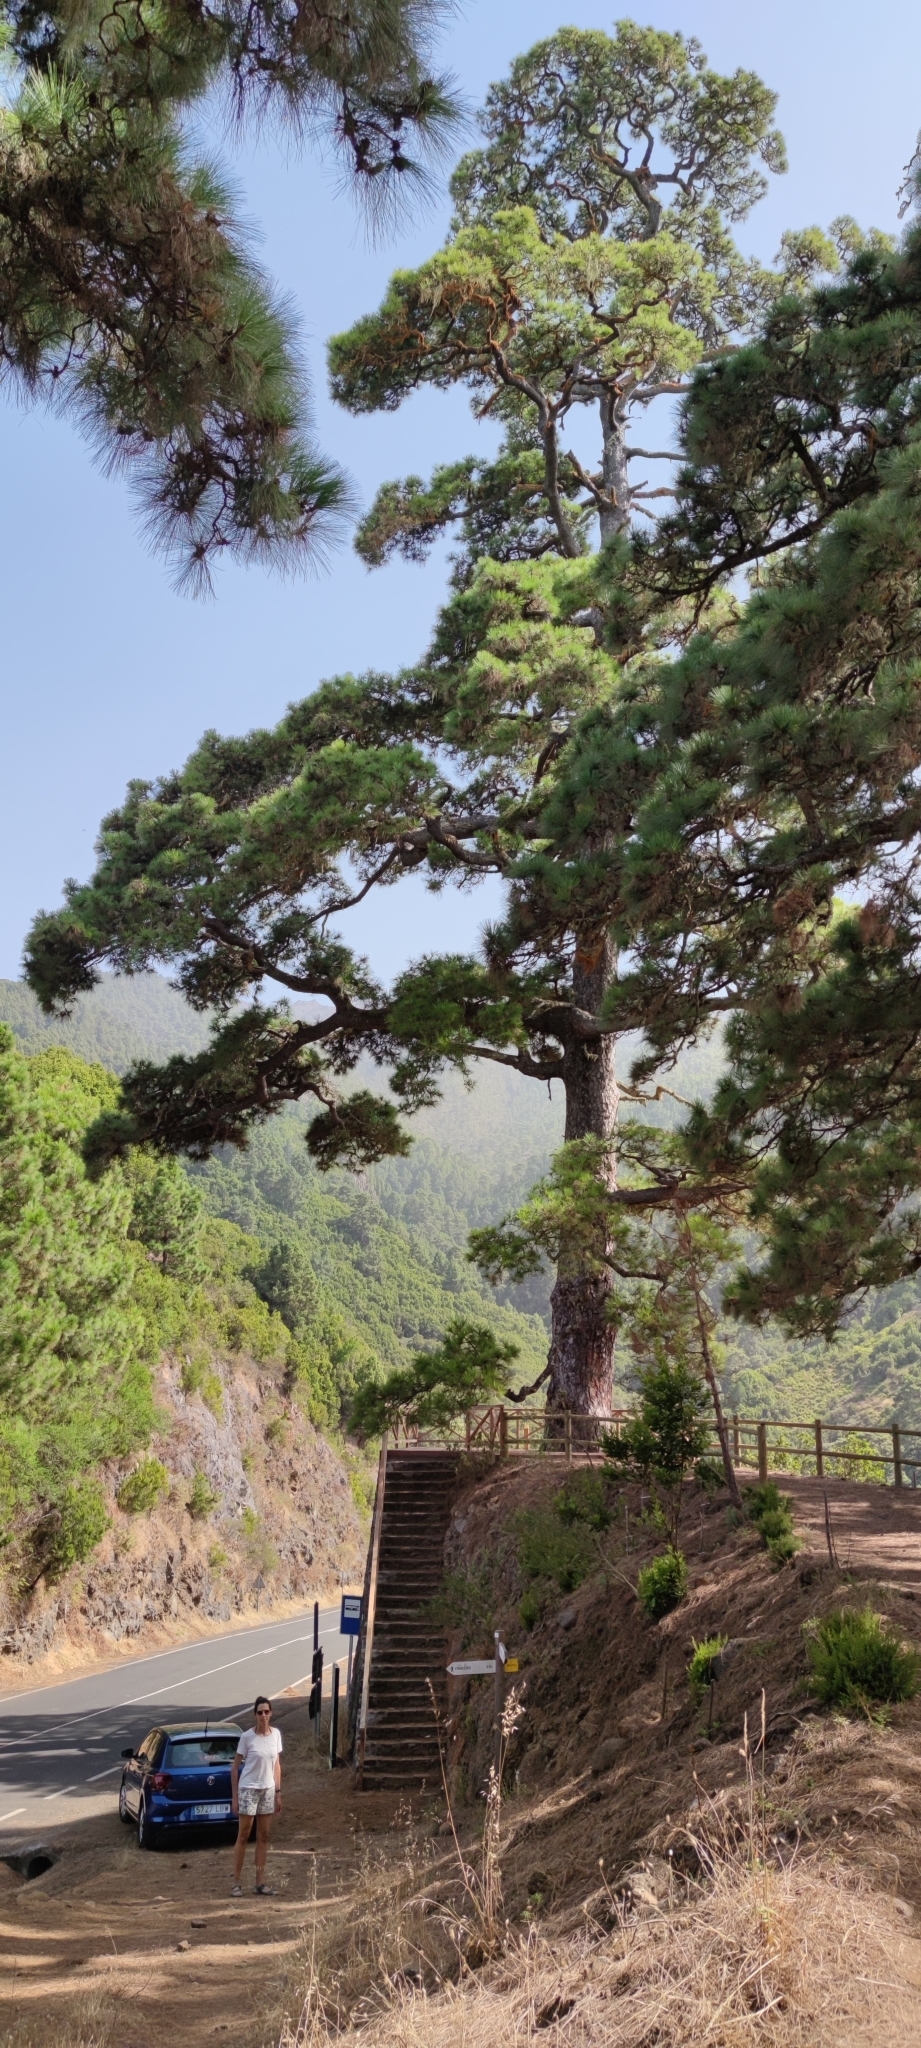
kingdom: Plantae
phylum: Tracheophyta
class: Pinopsida
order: Pinales
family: Pinaceae
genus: Pinus
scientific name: Pinus canariensis
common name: Canary islands pine
